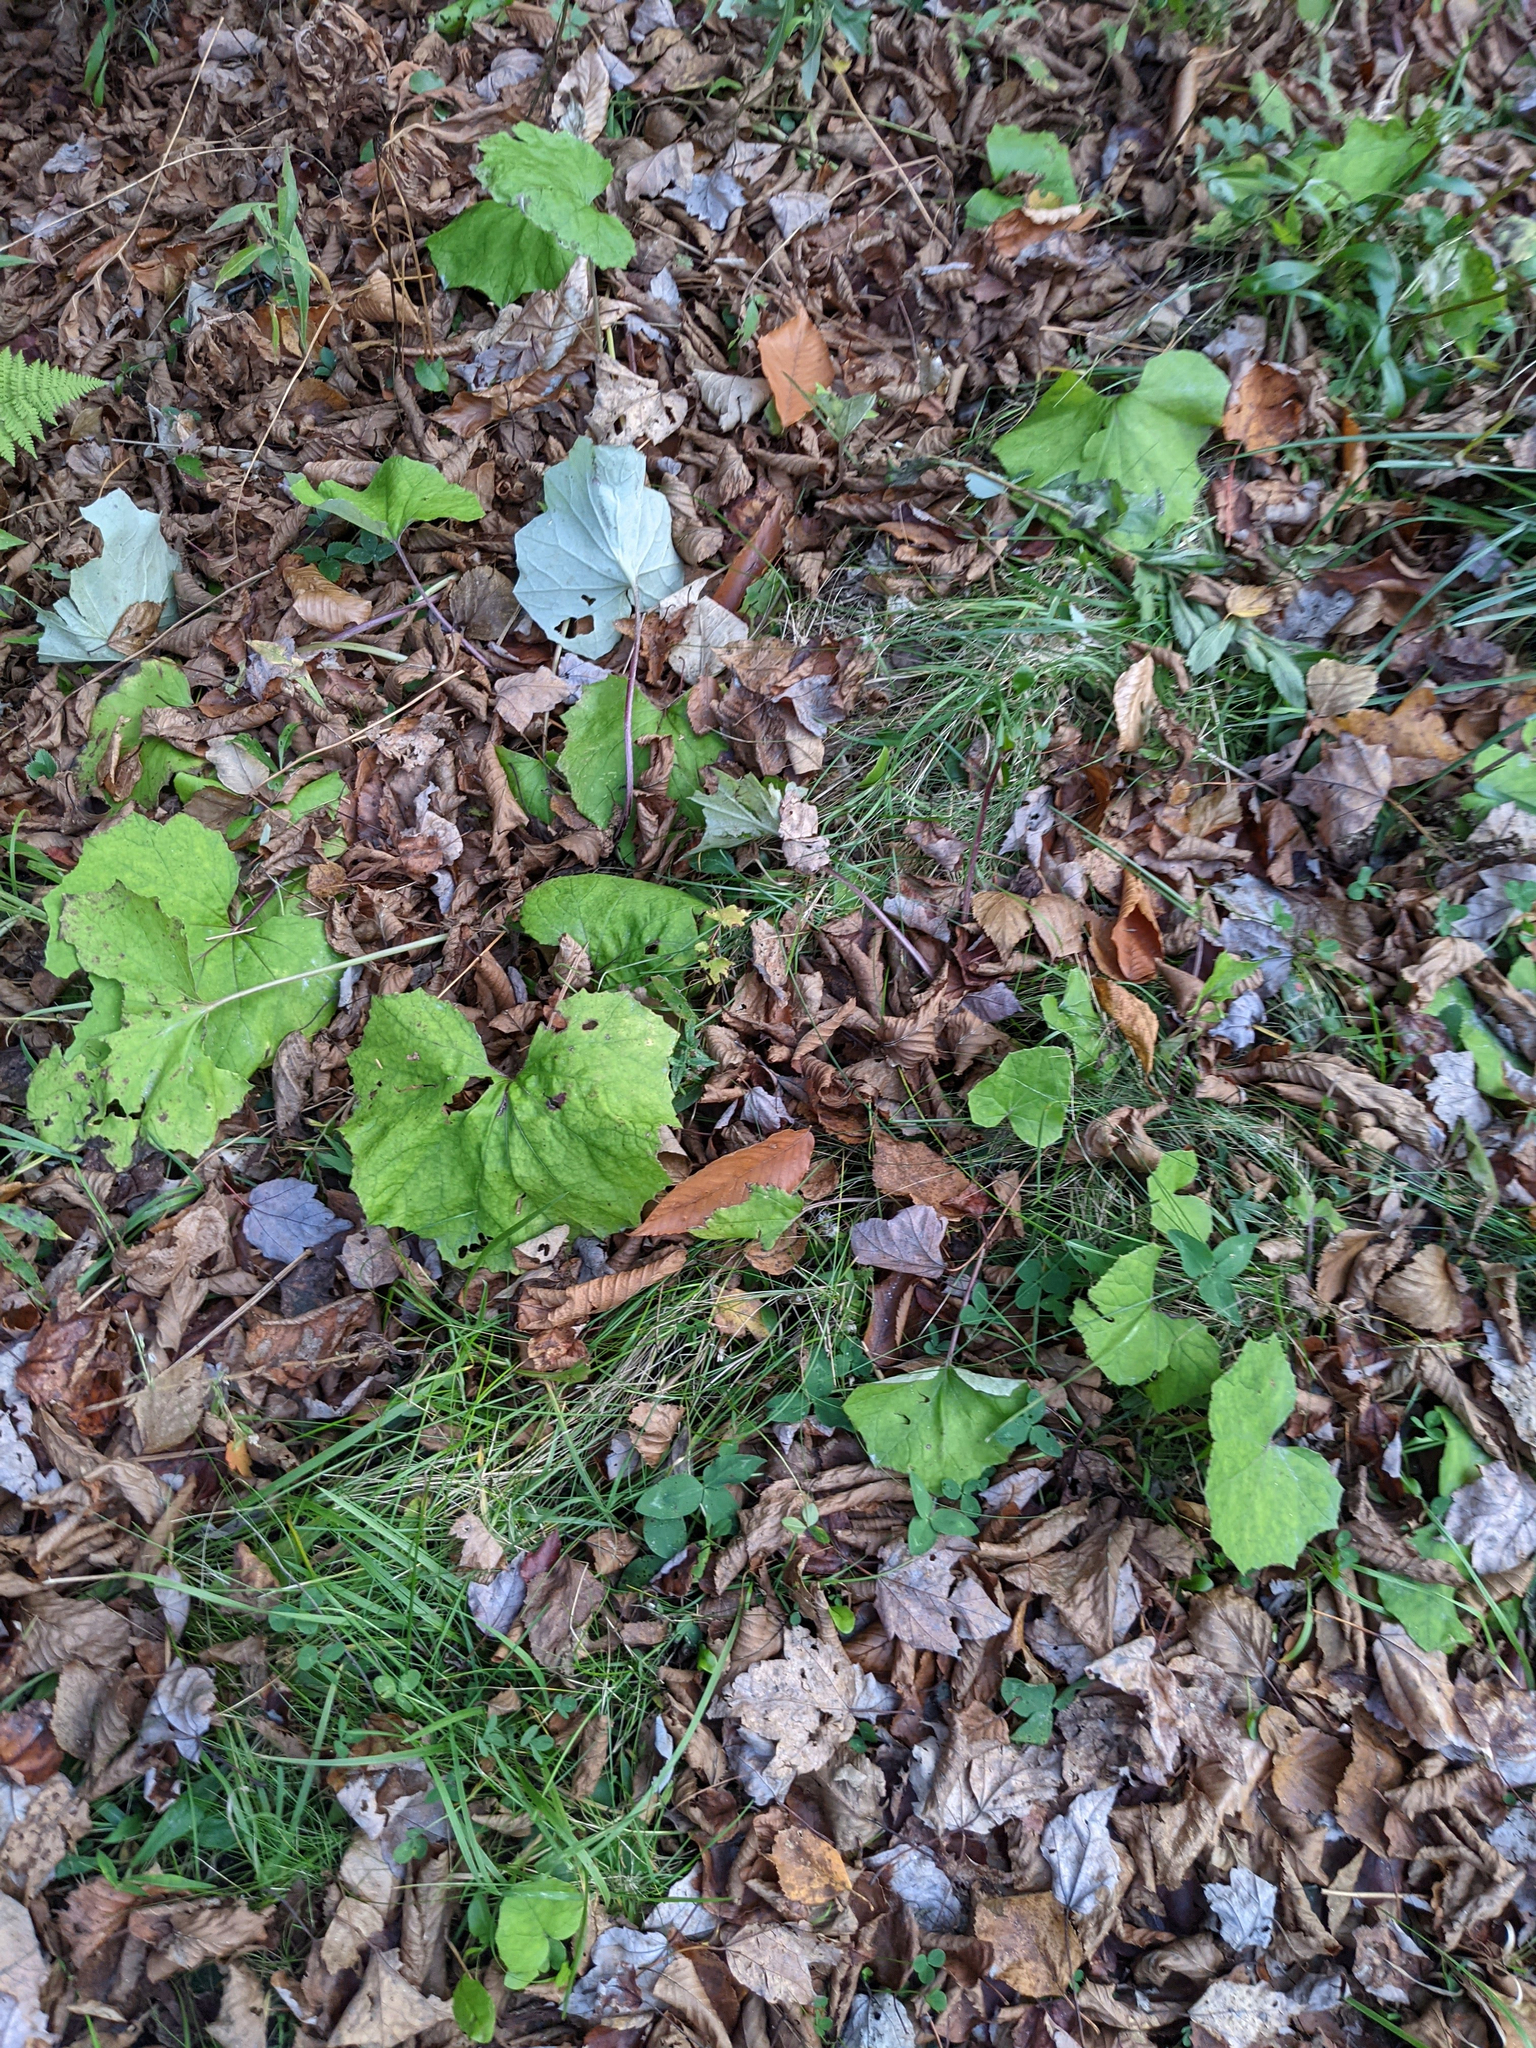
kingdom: Plantae
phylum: Tracheophyta
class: Magnoliopsida
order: Asterales
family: Asteraceae
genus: Tussilago
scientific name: Tussilago farfara
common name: Coltsfoot
